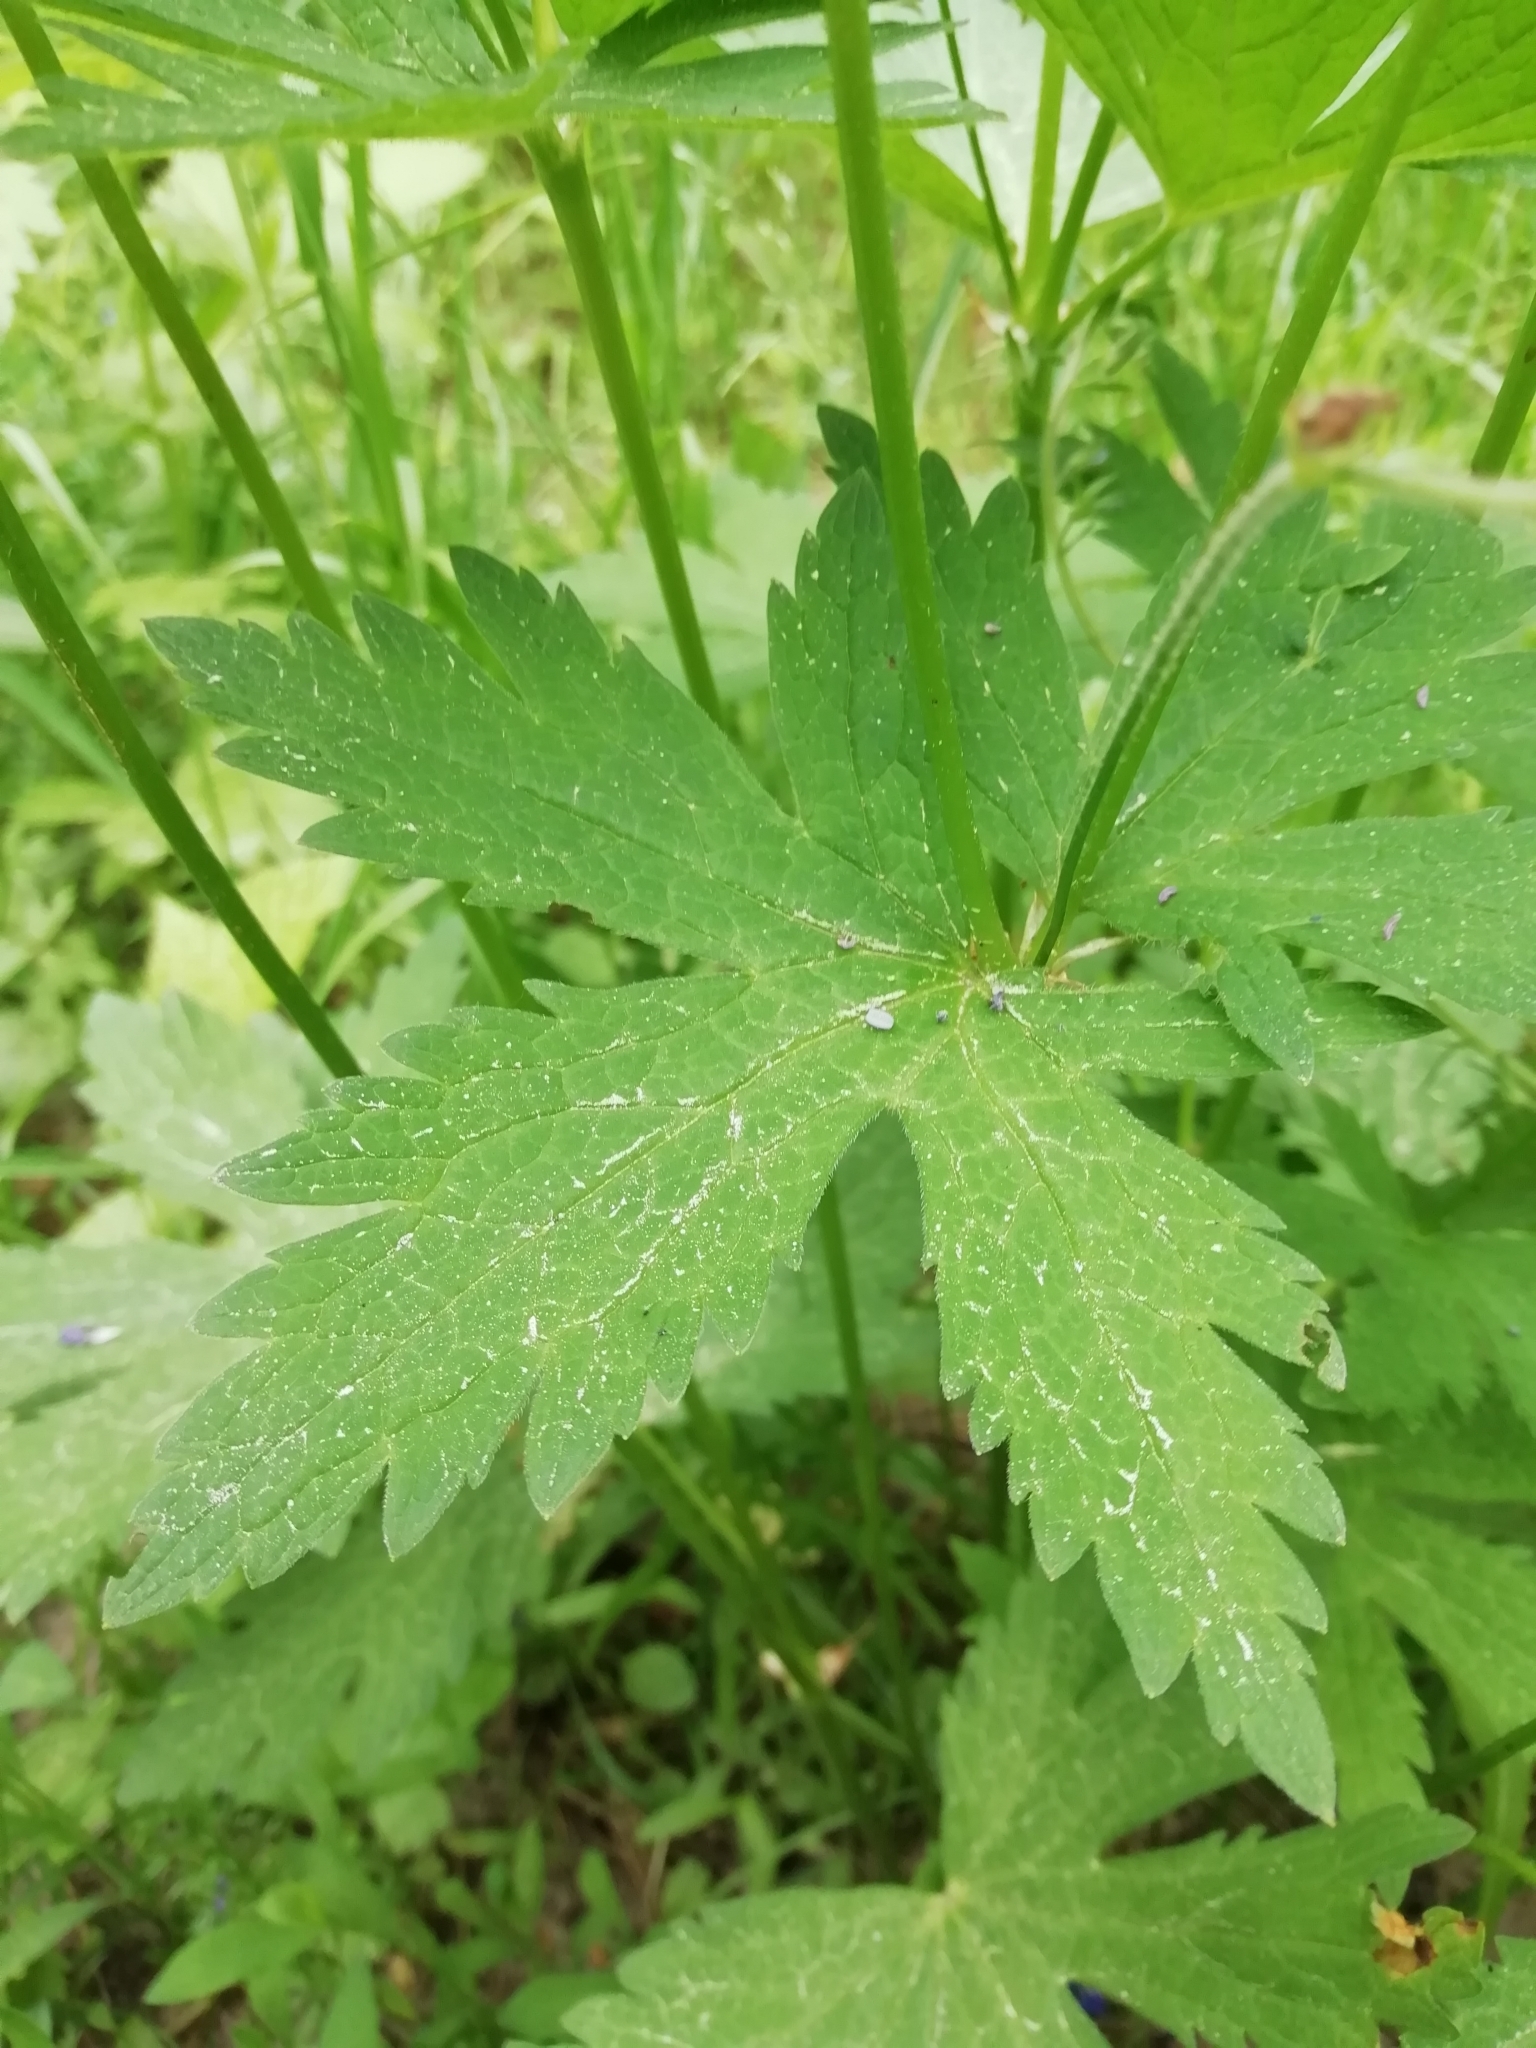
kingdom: Plantae
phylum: Tracheophyta
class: Magnoliopsida
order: Geraniales
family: Geraniaceae
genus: Geranium
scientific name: Geranium sylvaticum
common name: Wood crane's-bill
